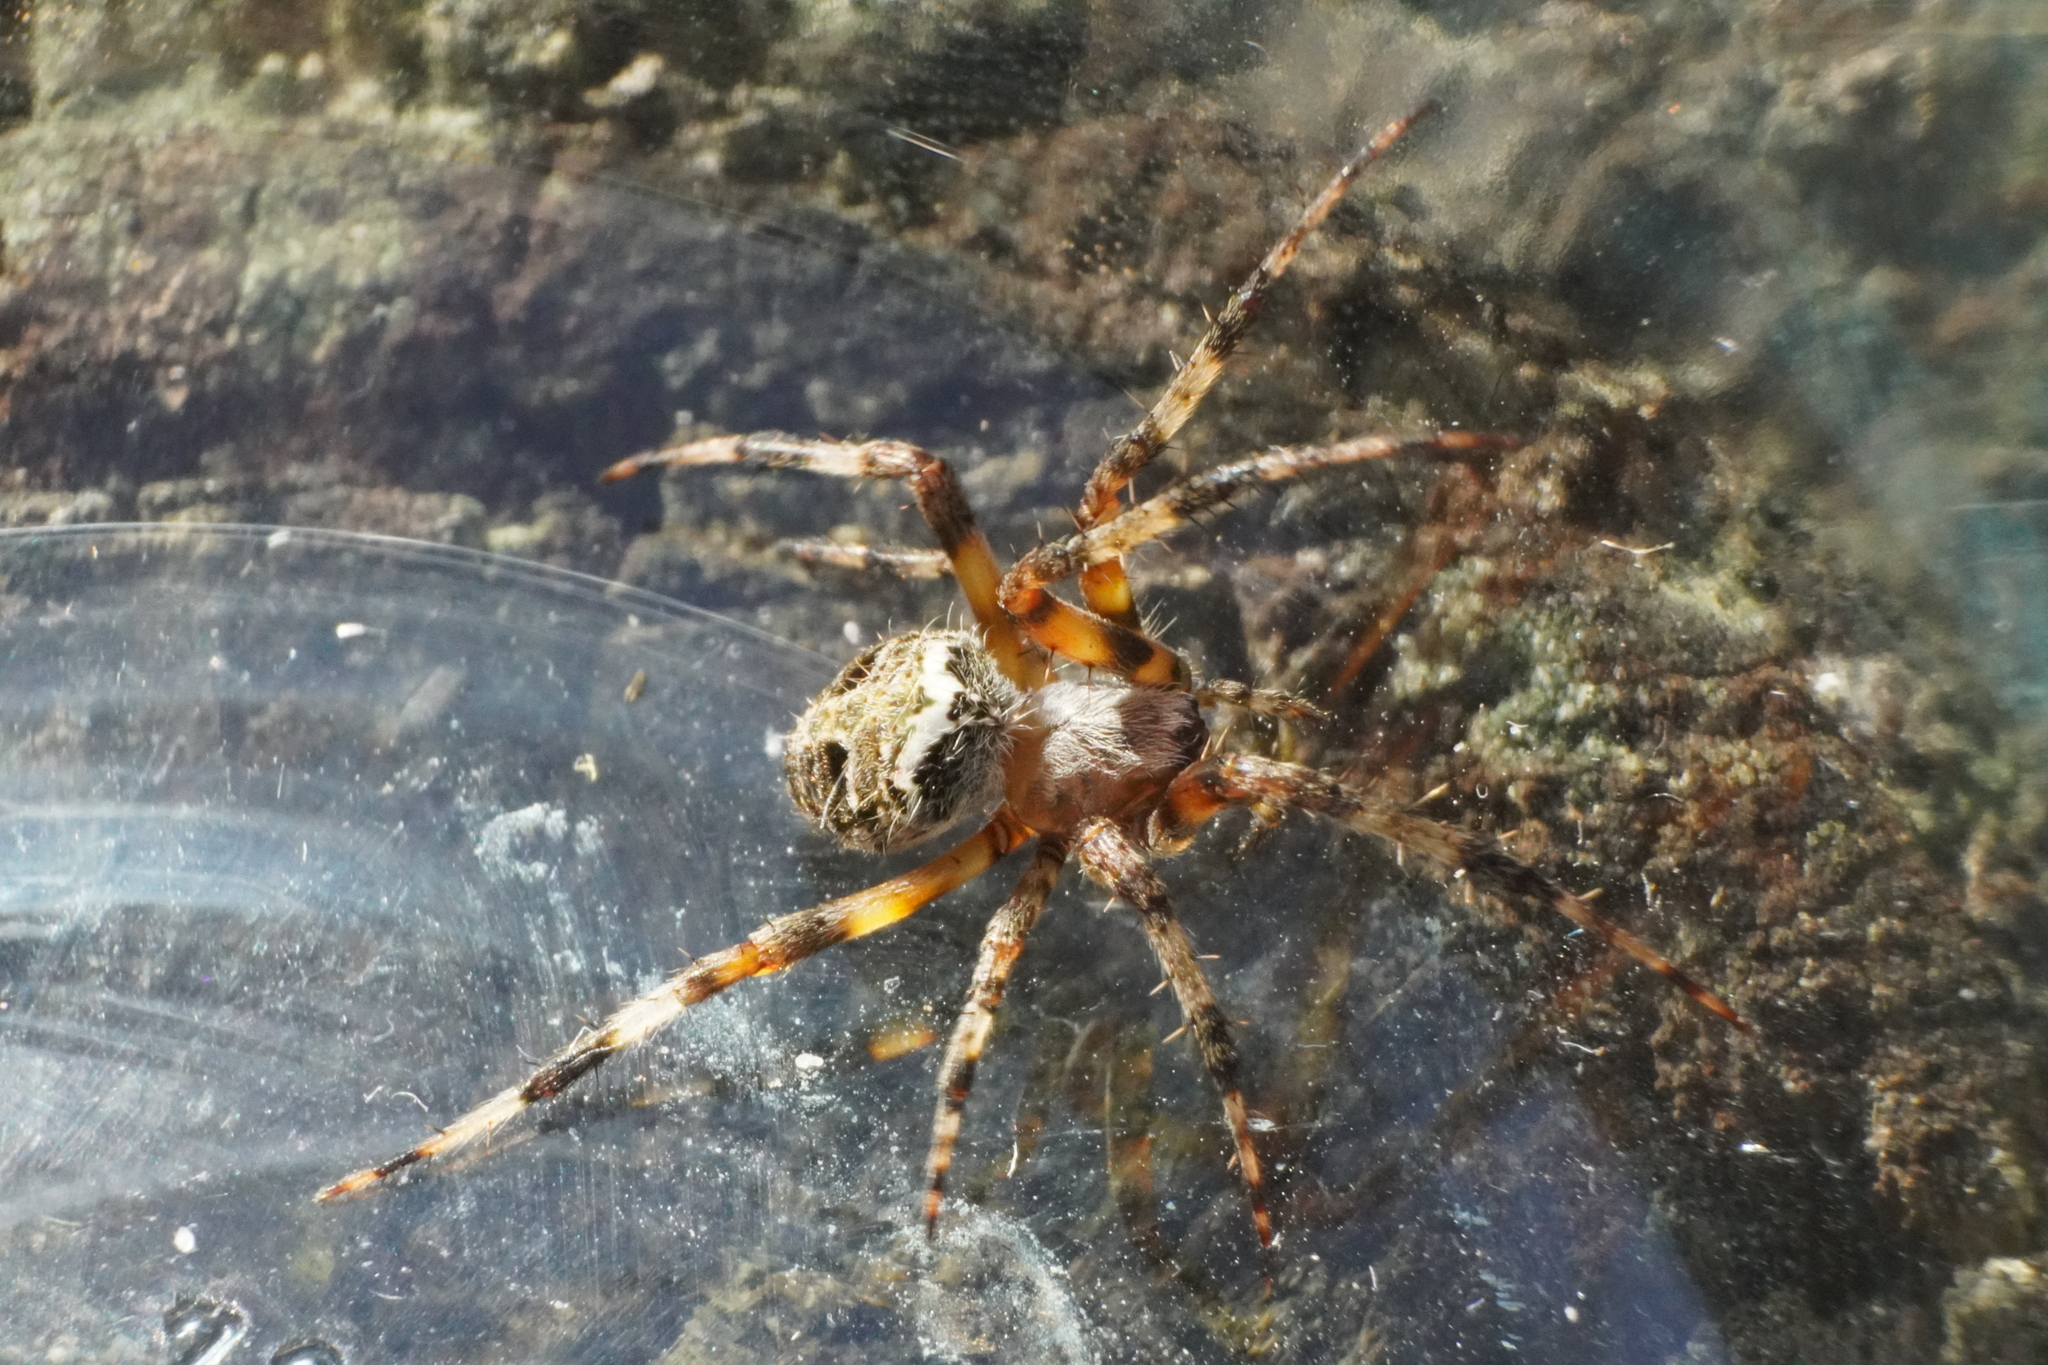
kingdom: Animalia
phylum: Arthropoda
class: Arachnida
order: Araneae
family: Araneidae
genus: Neoscona
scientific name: Neoscona domiciliorum
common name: Red-femured spotted orbweaver
